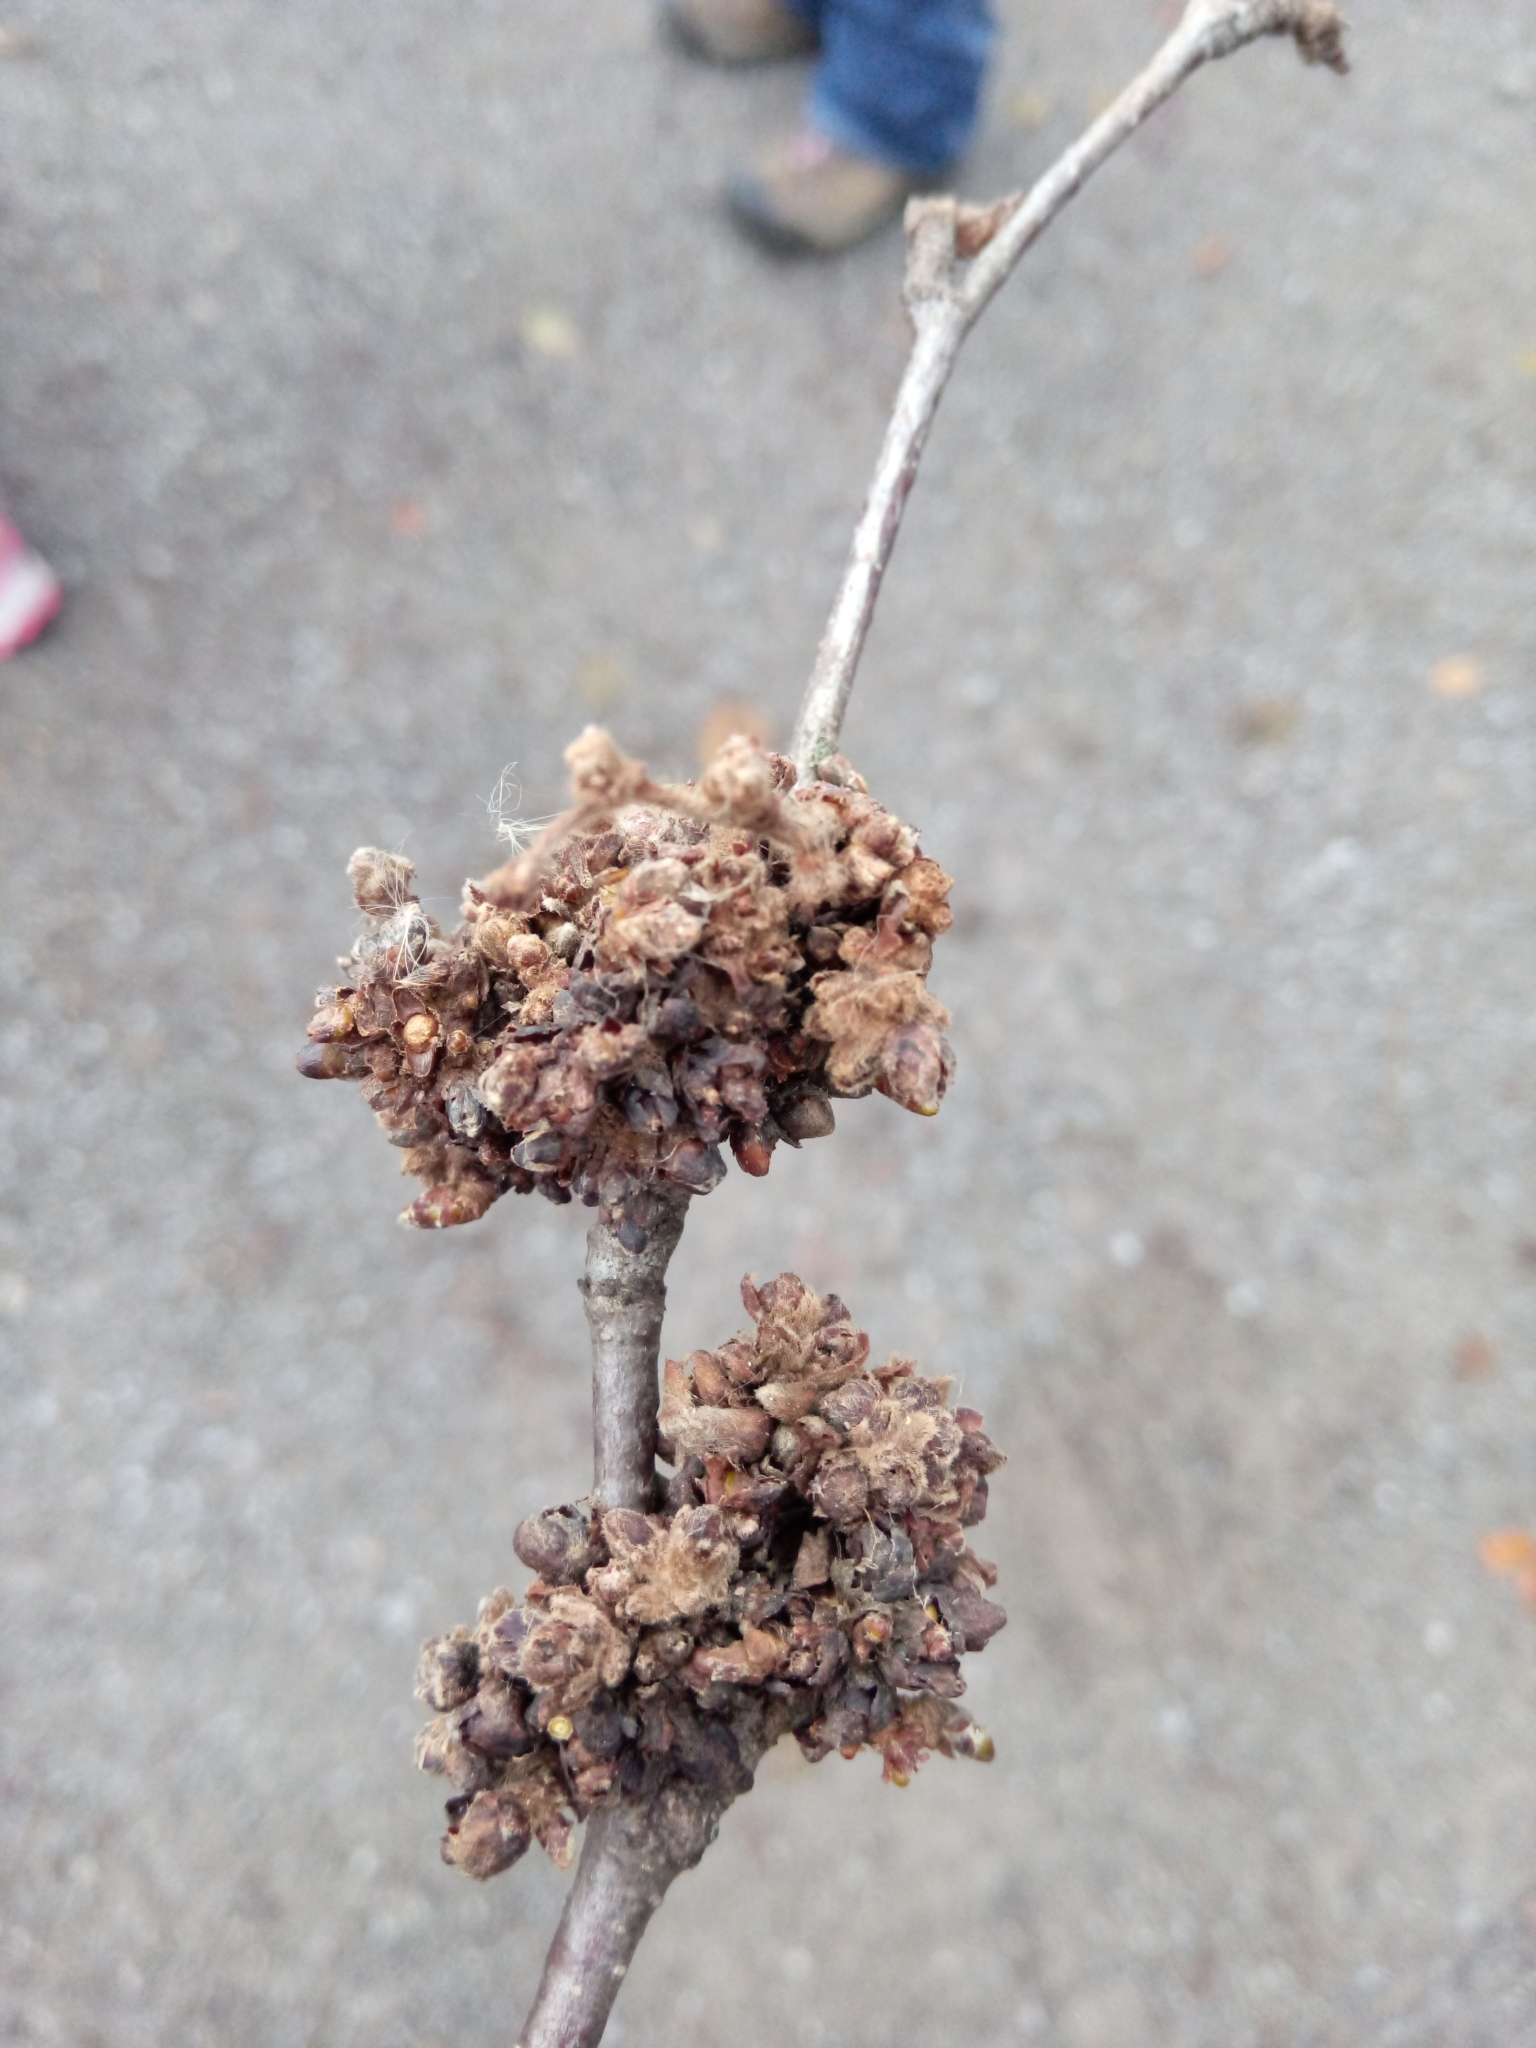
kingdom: Fungi
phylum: Ascomycota
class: Taphrinomycetes
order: Taphrinales
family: Taphrinaceae
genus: Taphrina
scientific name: Taphrina americana
